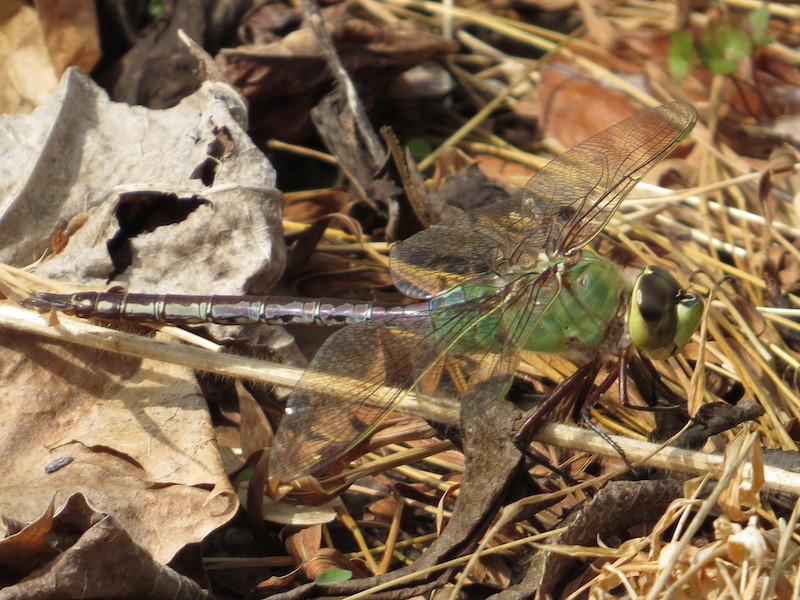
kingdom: Animalia
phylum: Arthropoda
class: Insecta
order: Odonata
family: Aeshnidae
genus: Anax
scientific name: Anax junius
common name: Common green darner
